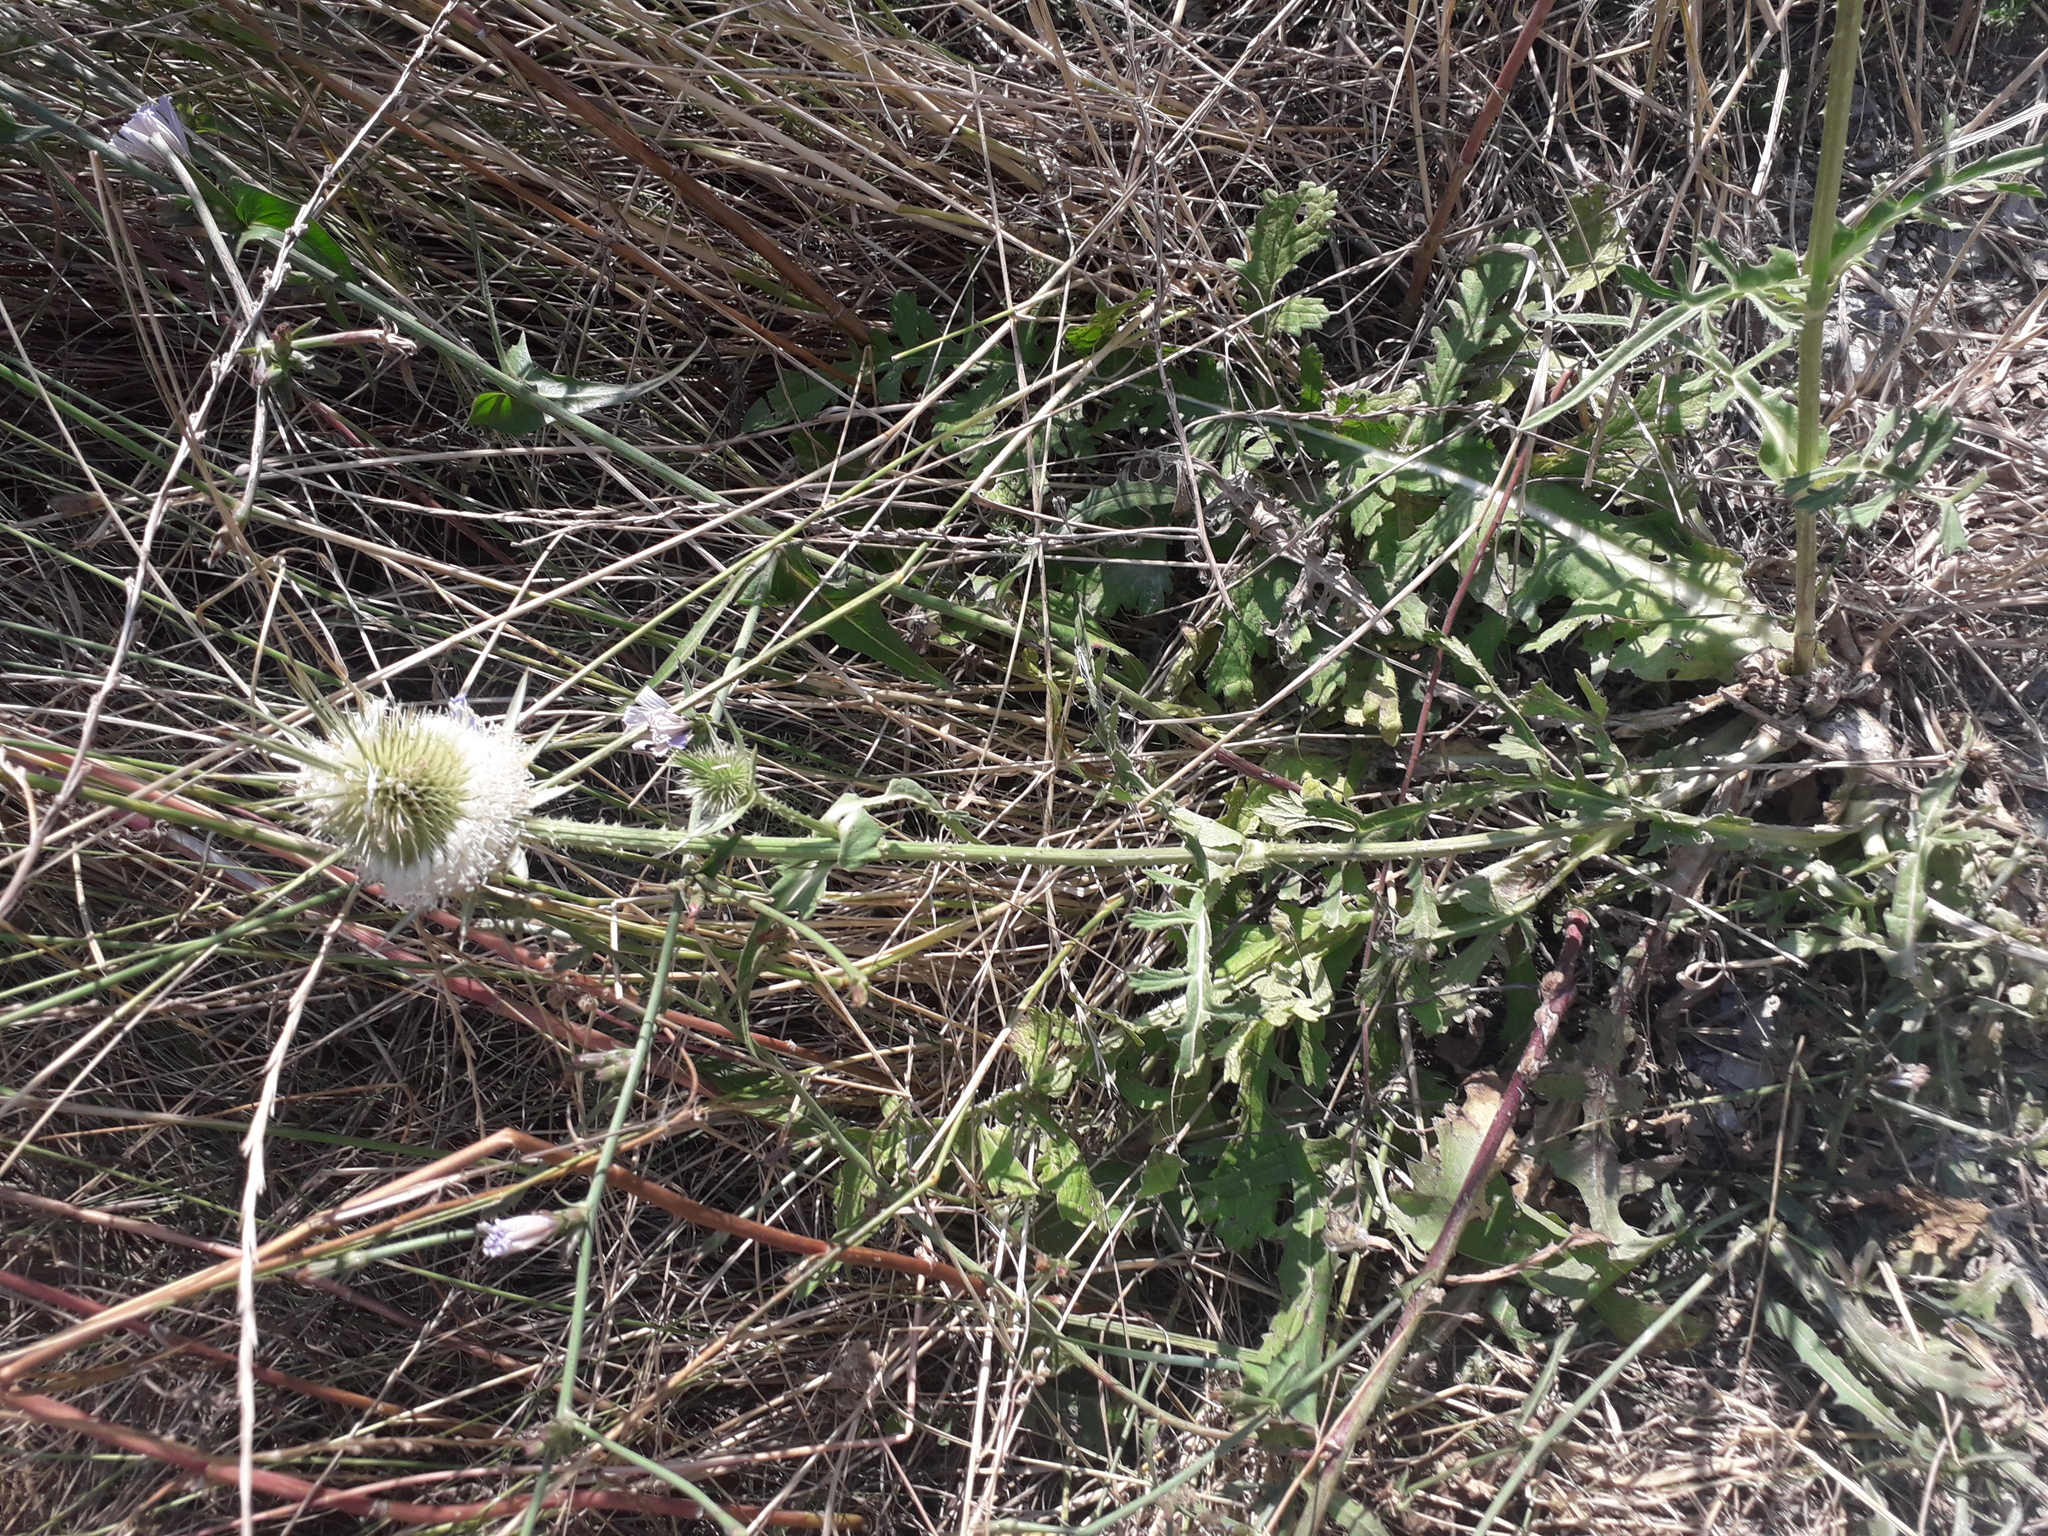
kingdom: Plantae
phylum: Tracheophyta
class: Magnoliopsida
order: Dipsacales
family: Caprifoliaceae
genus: Dipsacus
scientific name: Dipsacus laciniatus
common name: Cut-leaved teasel
